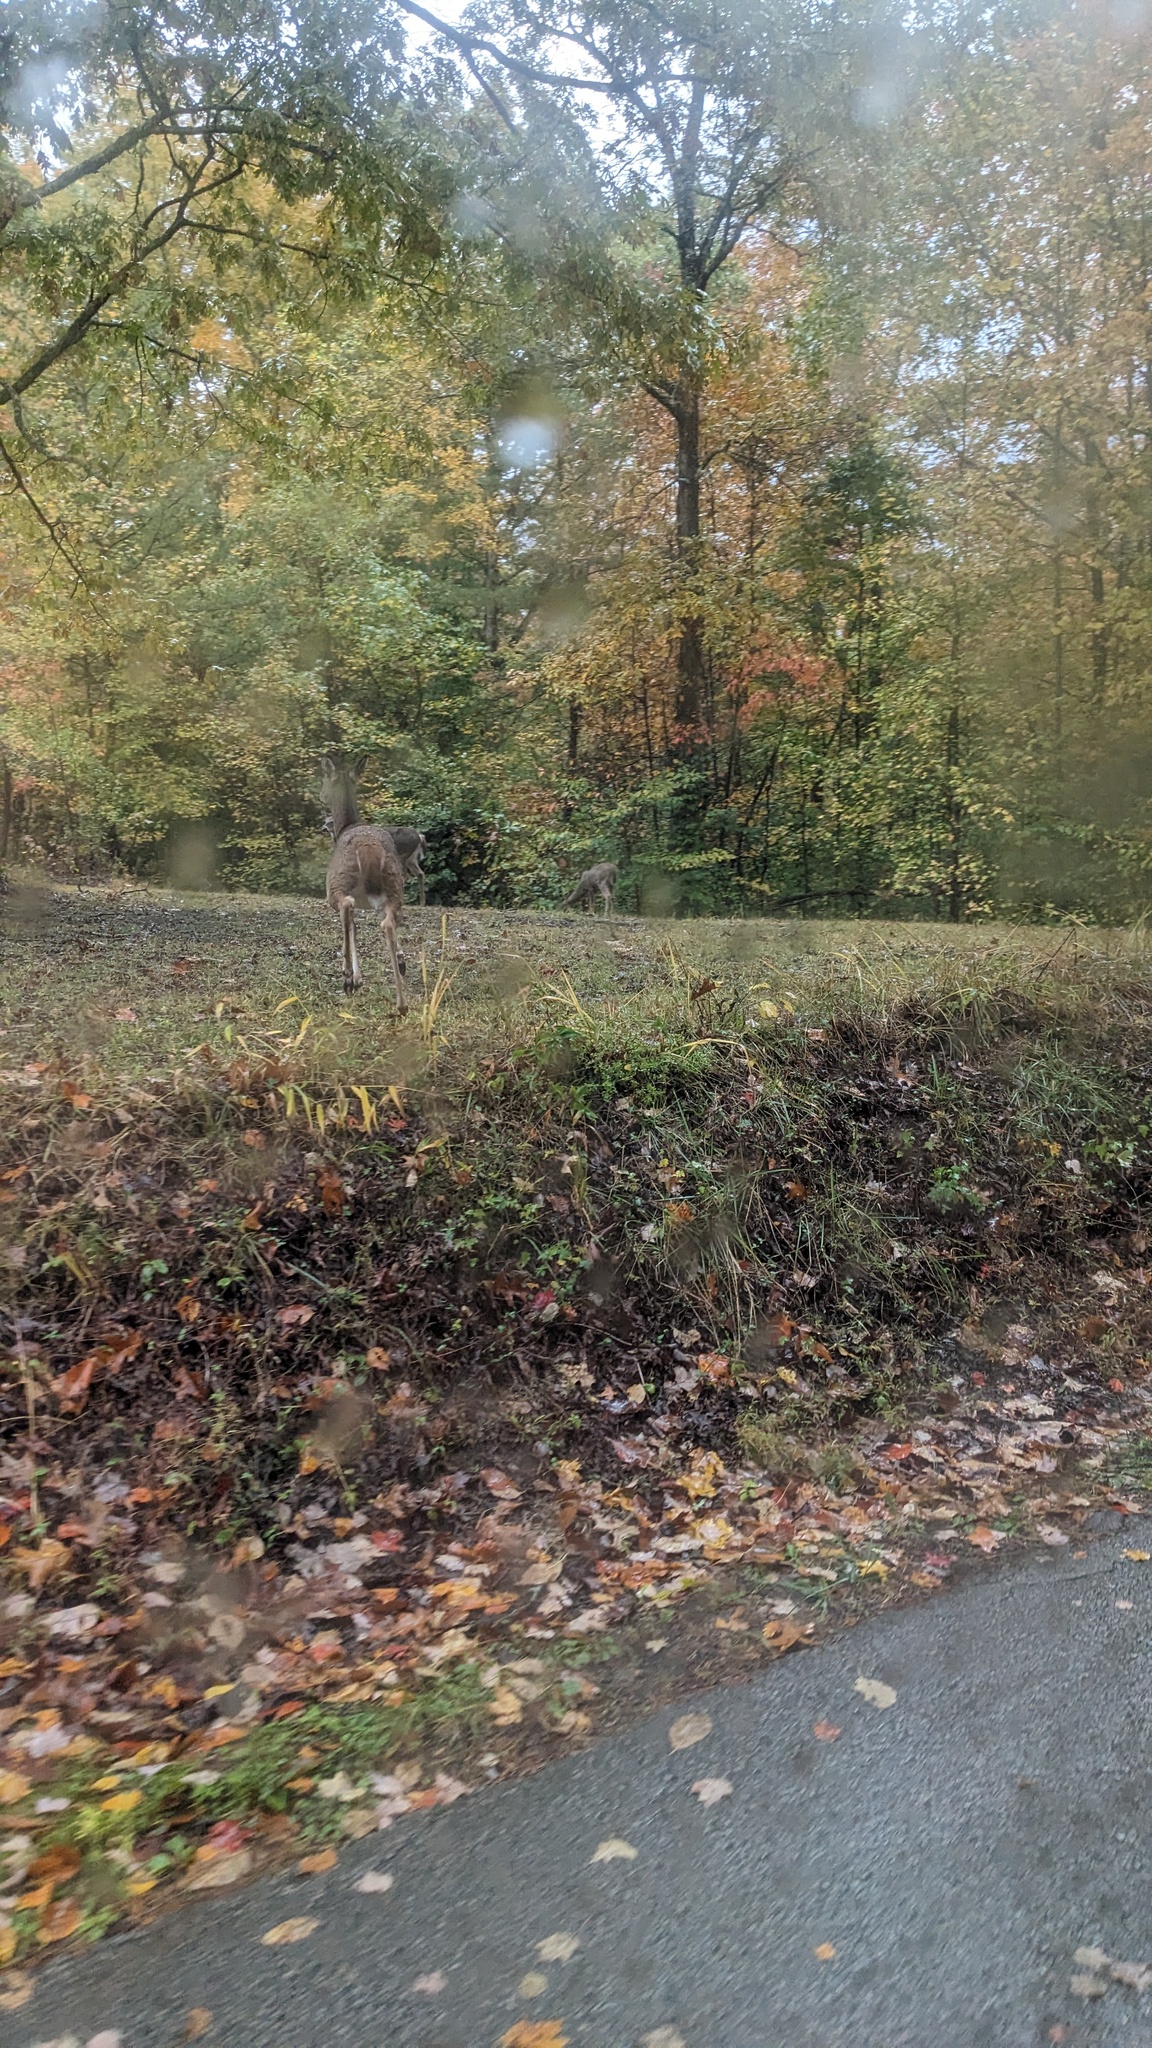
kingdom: Animalia
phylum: Chordata
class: Mammalia
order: Artiodactyla
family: Cervidae
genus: Odocoileus
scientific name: Odocoileus virginianus
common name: White-tailed deer
